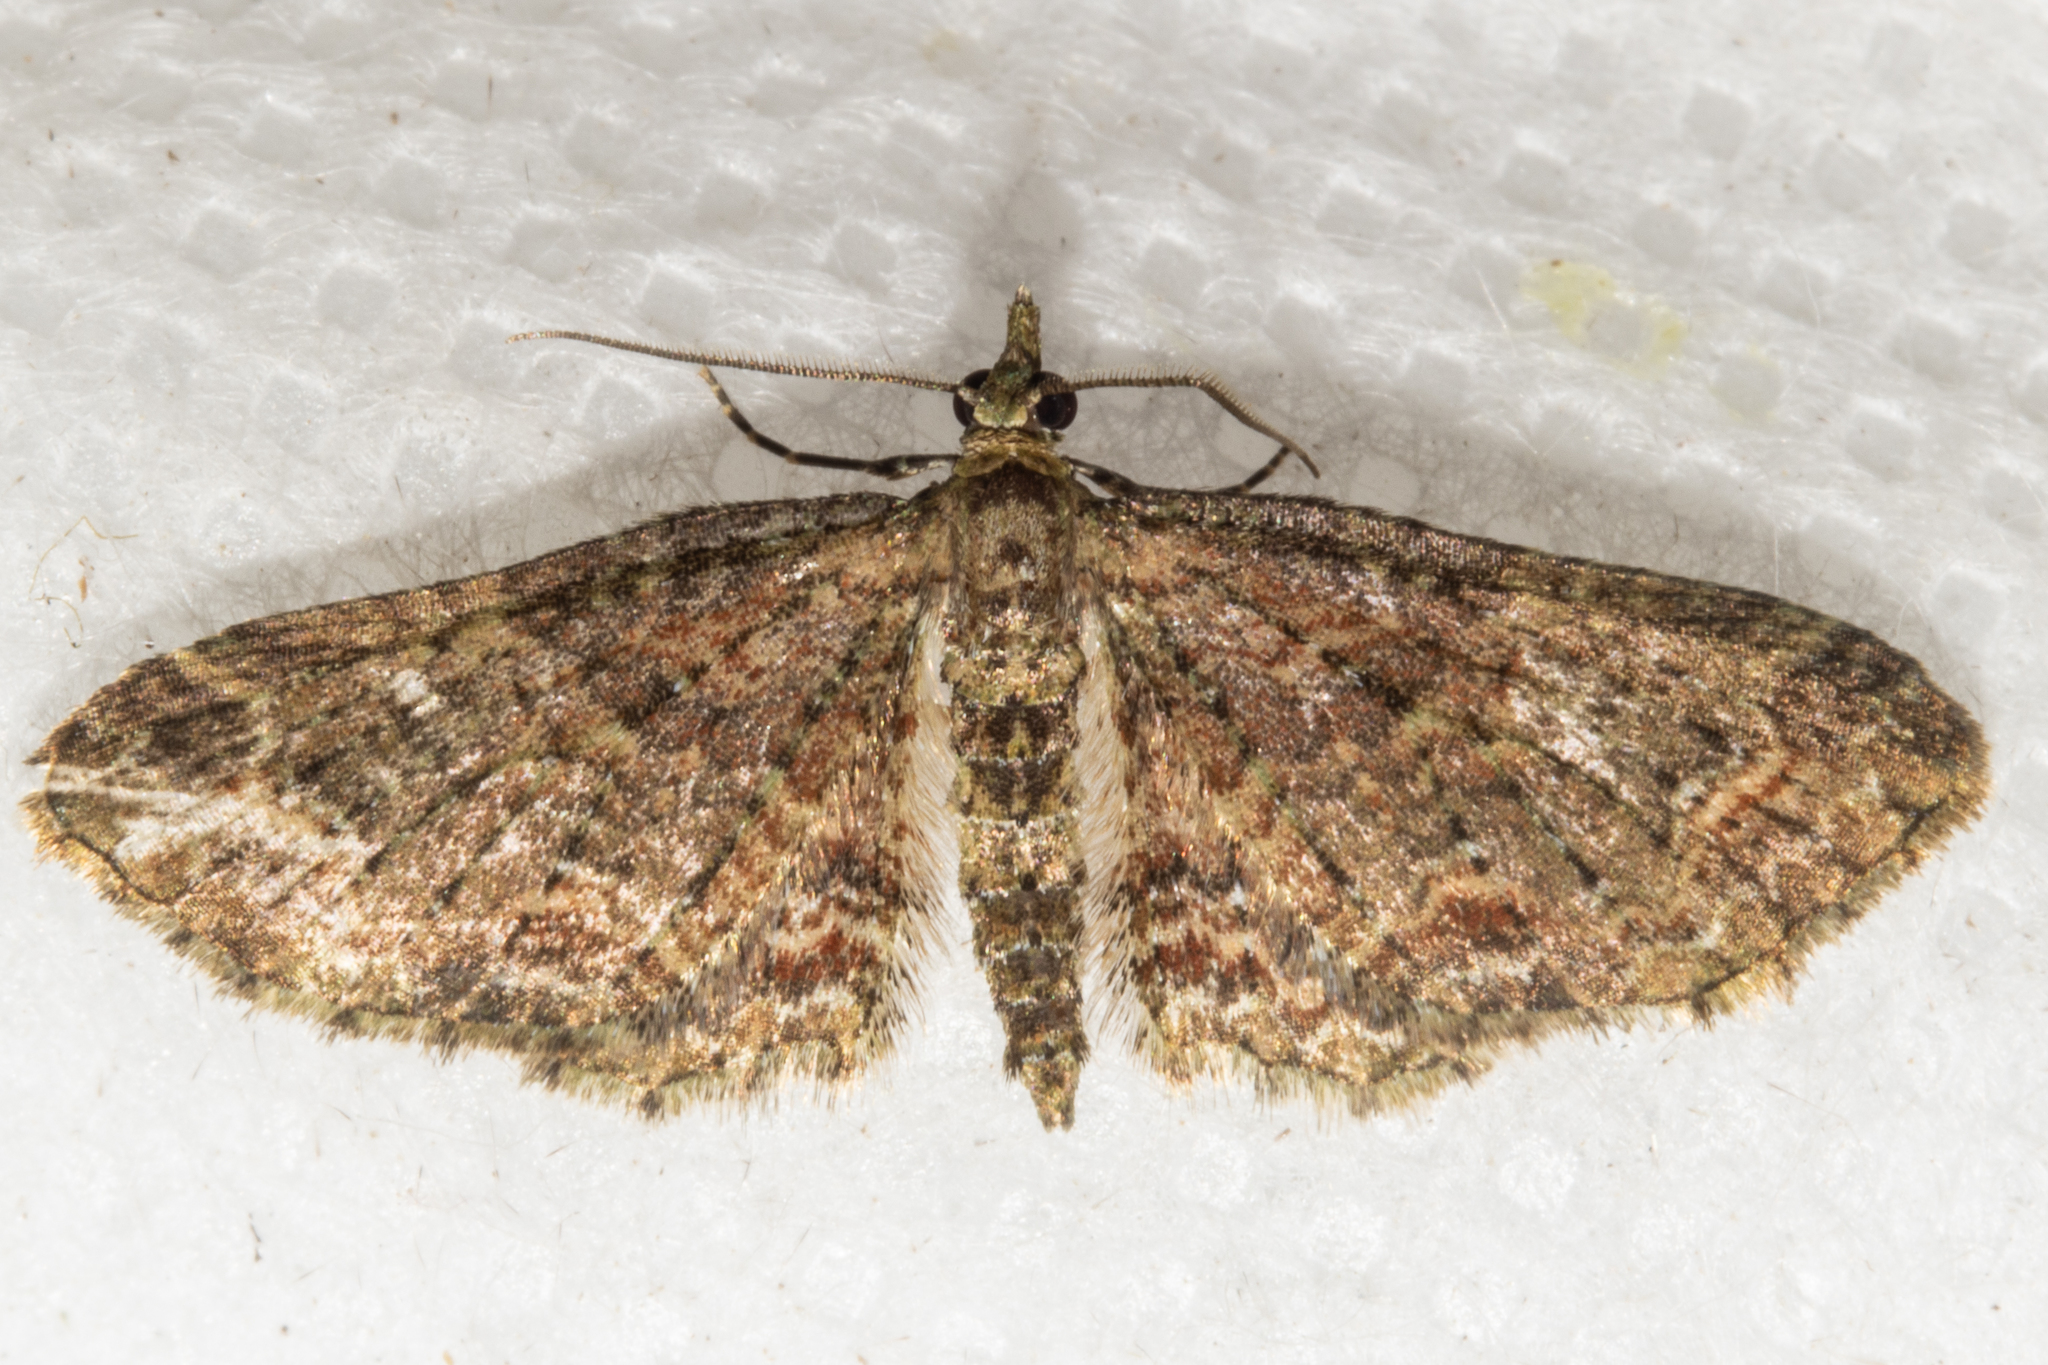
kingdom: Animalia
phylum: Arthropoda
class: Insecta
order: Lepidoptera
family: Geometridae
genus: Pasiphila
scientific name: Pasiphila dryas
